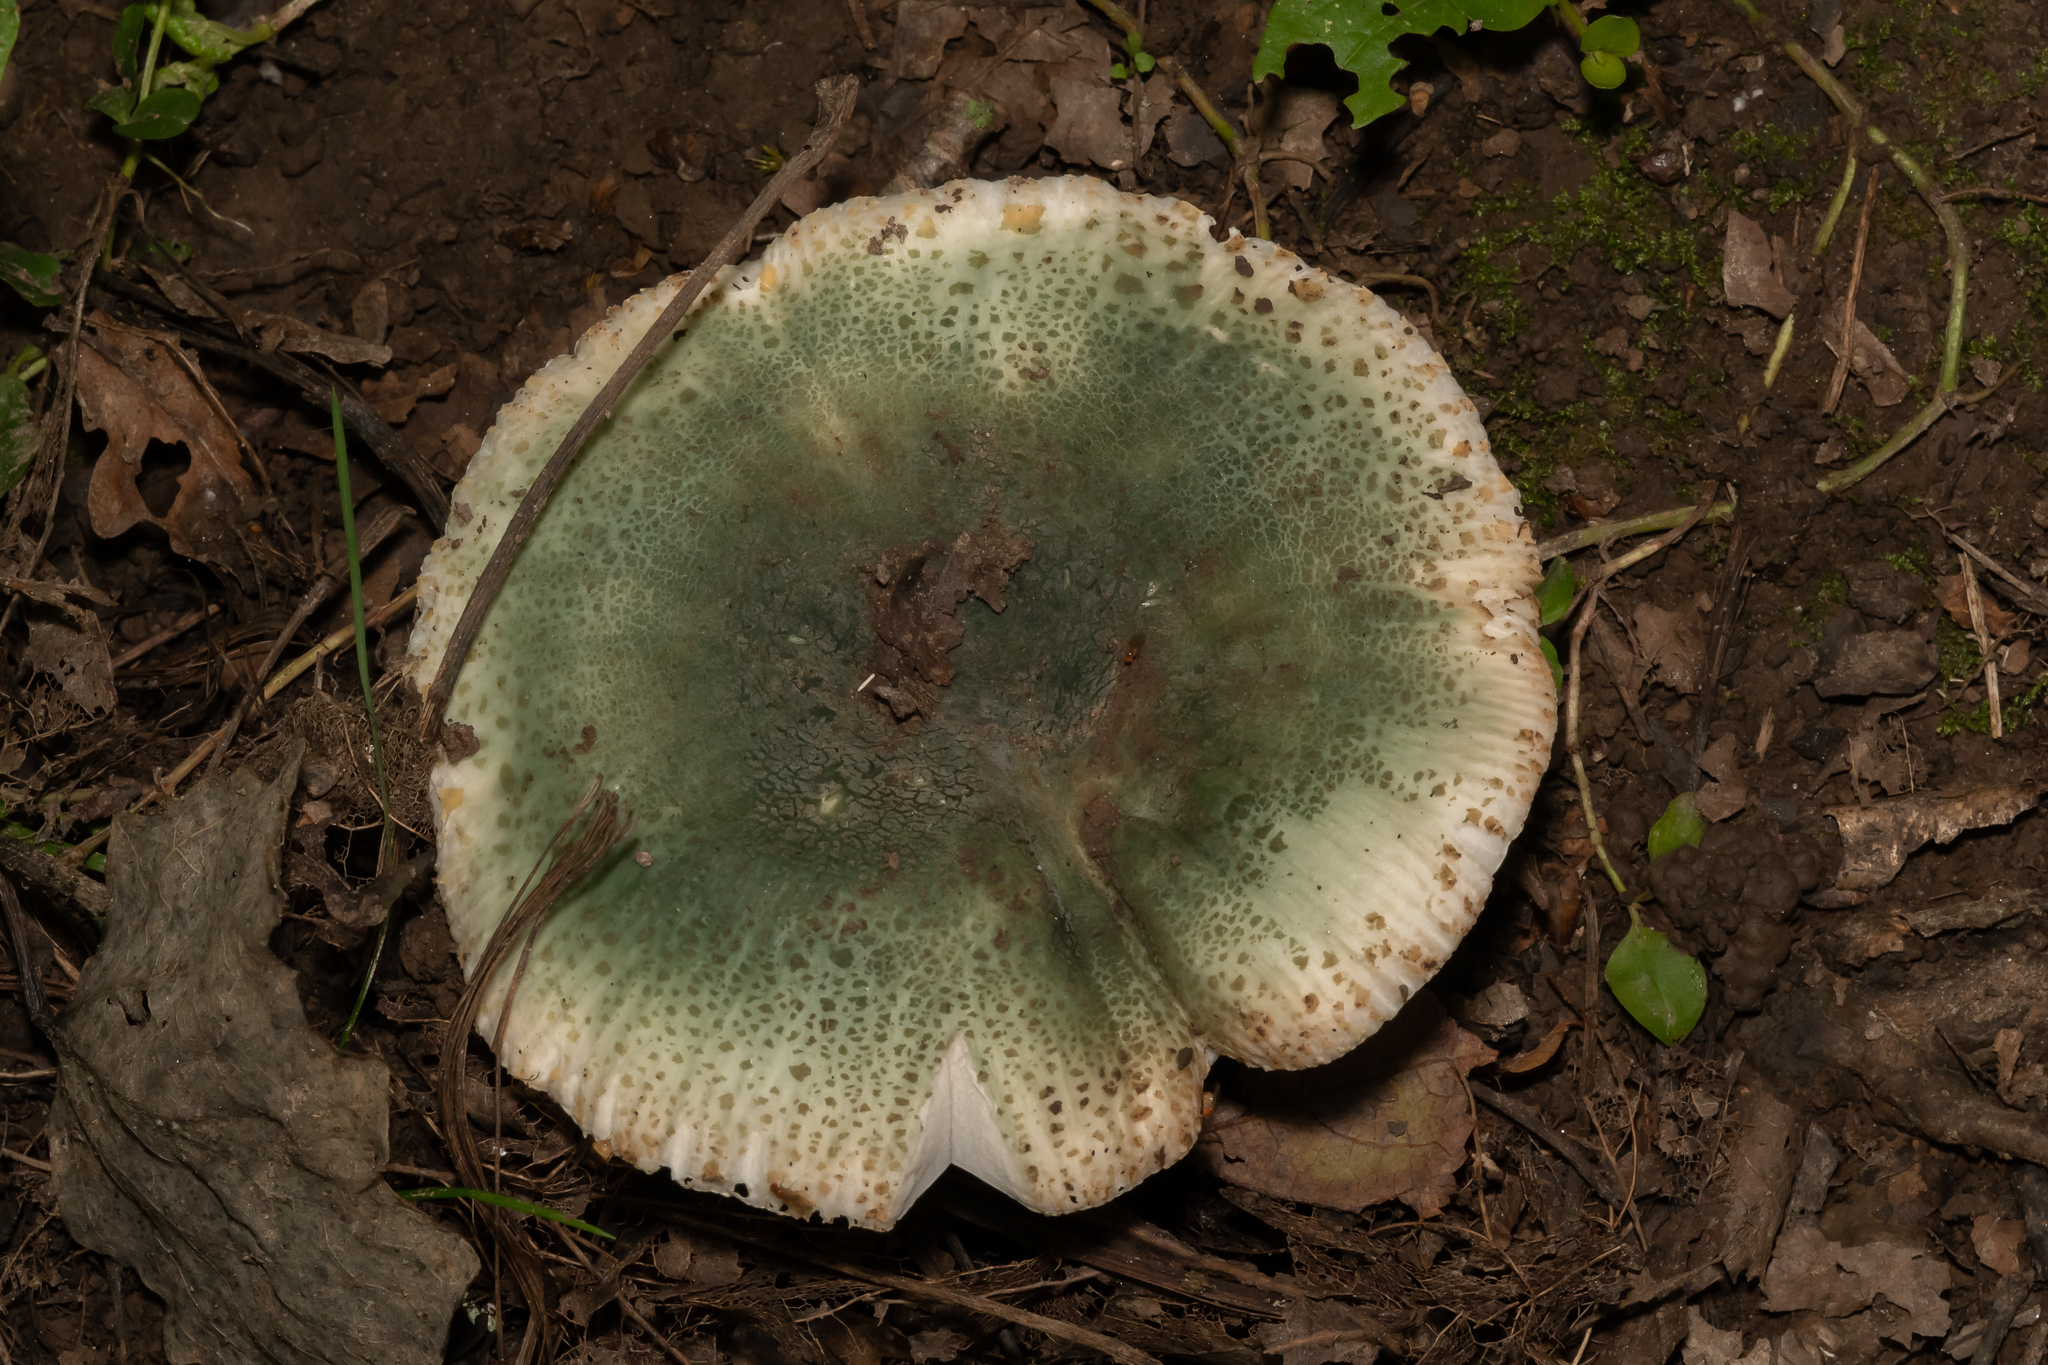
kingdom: Fungi
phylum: Basidiomycota
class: Agaricomycetes
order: Russulales
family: Russulaceae
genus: Russula
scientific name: Russula virescens
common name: Greencracked brittlegill
